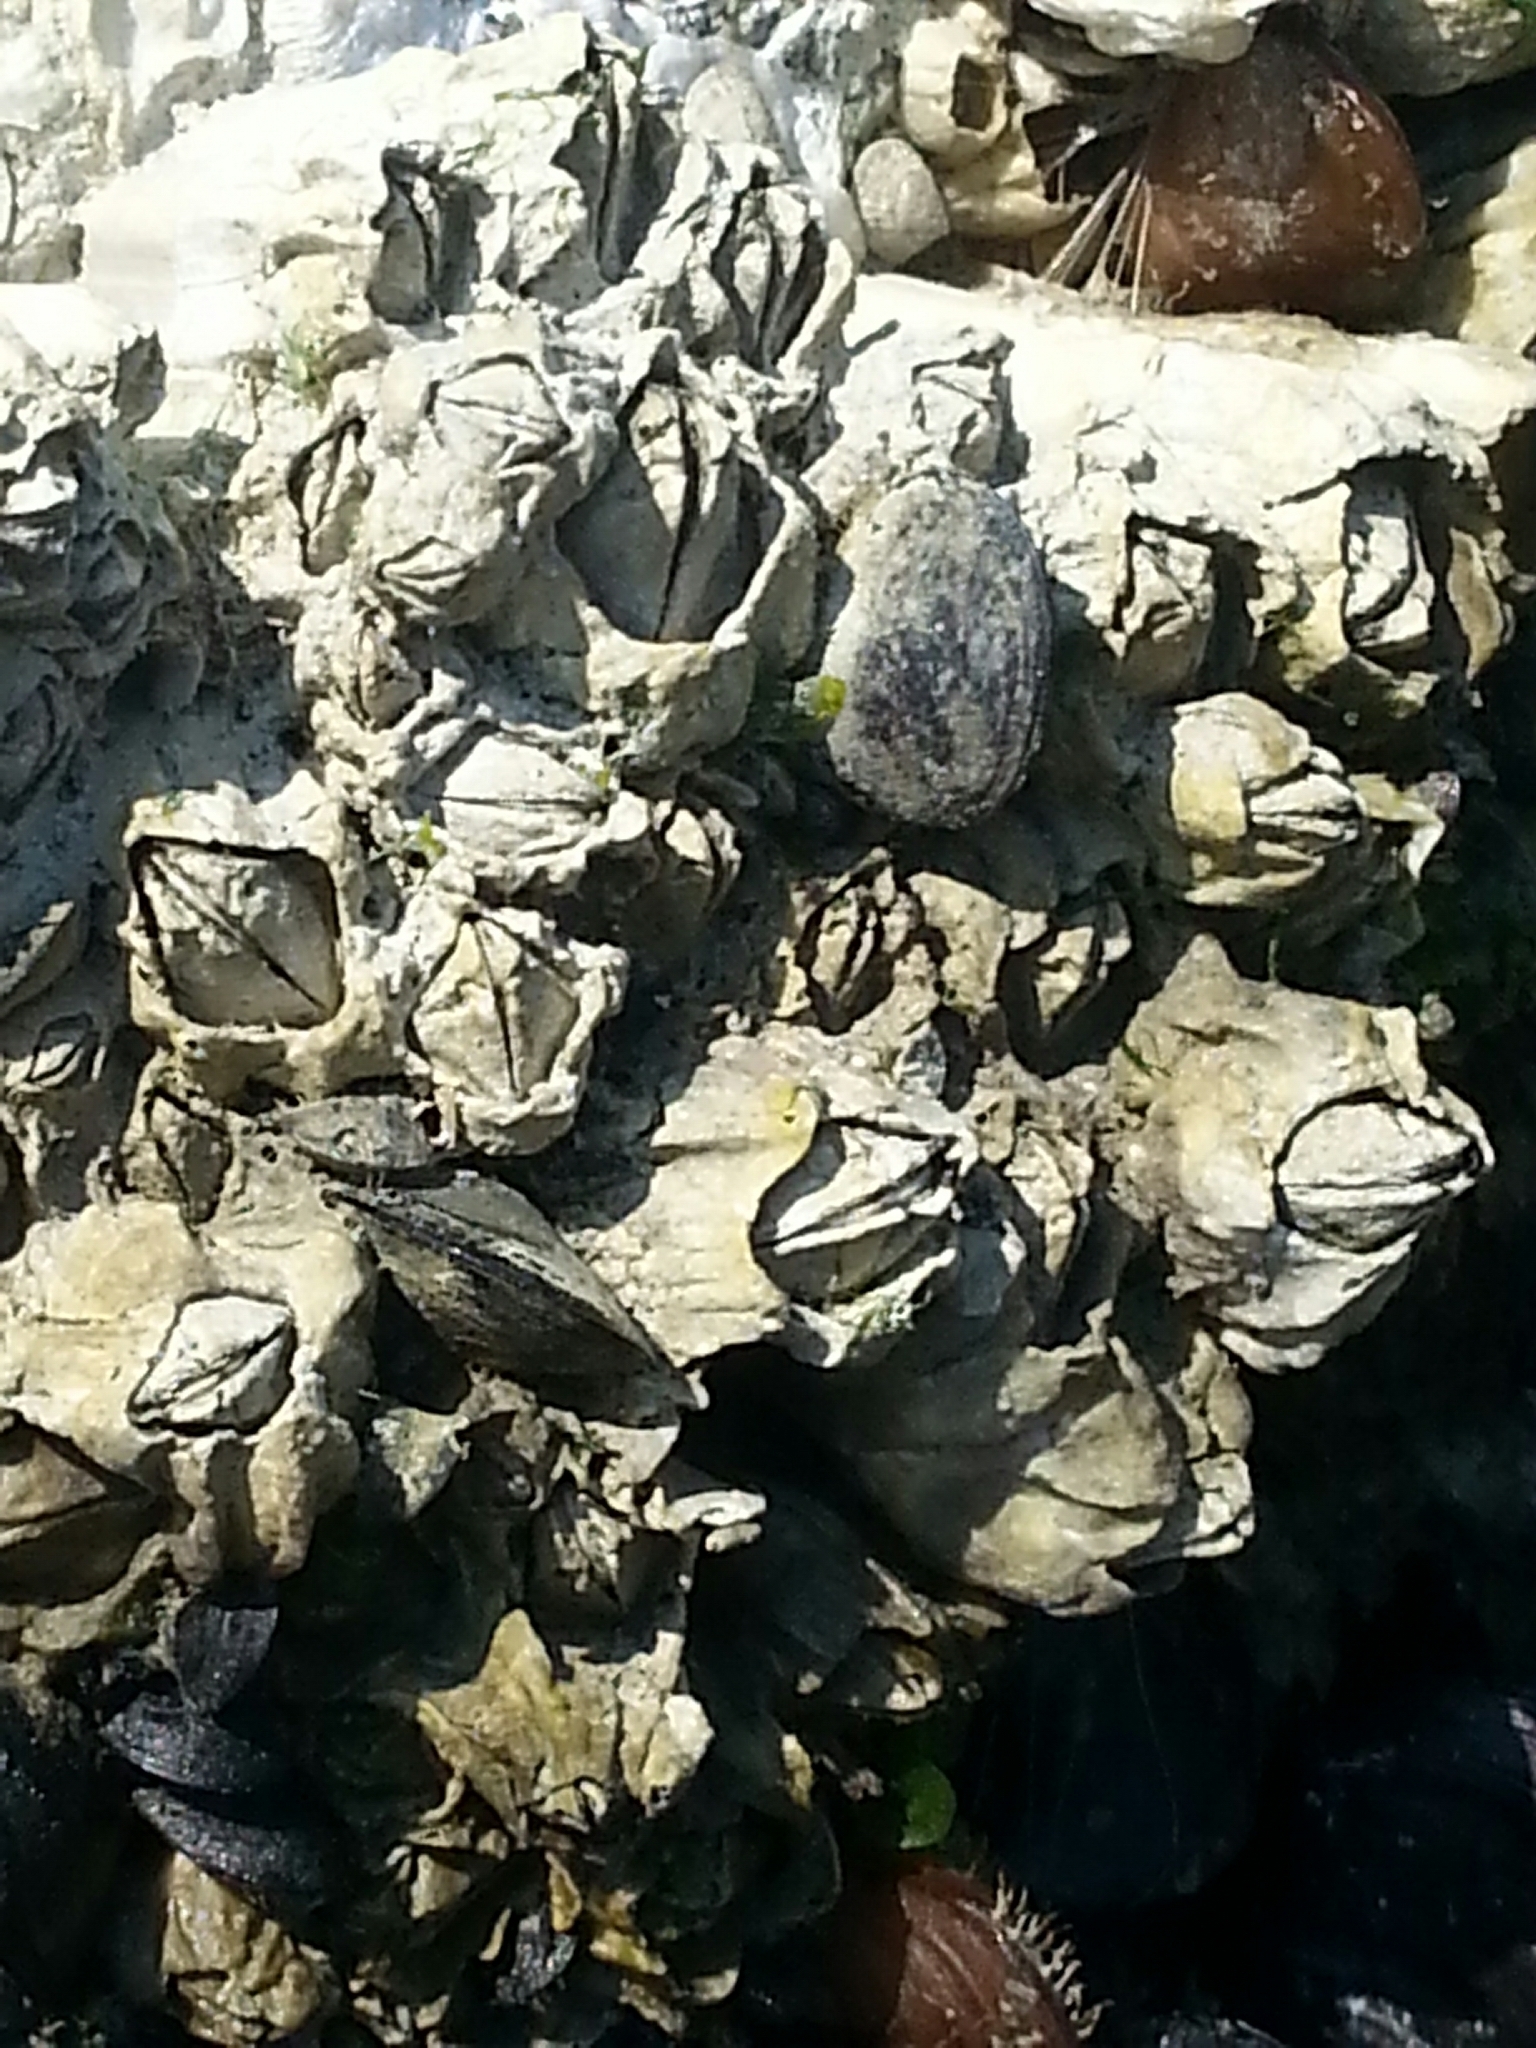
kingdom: Animalia
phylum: Arthropoda
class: Maxillopoda
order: Sessilia
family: Balanidae
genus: Balanus
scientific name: Balanus glandula
